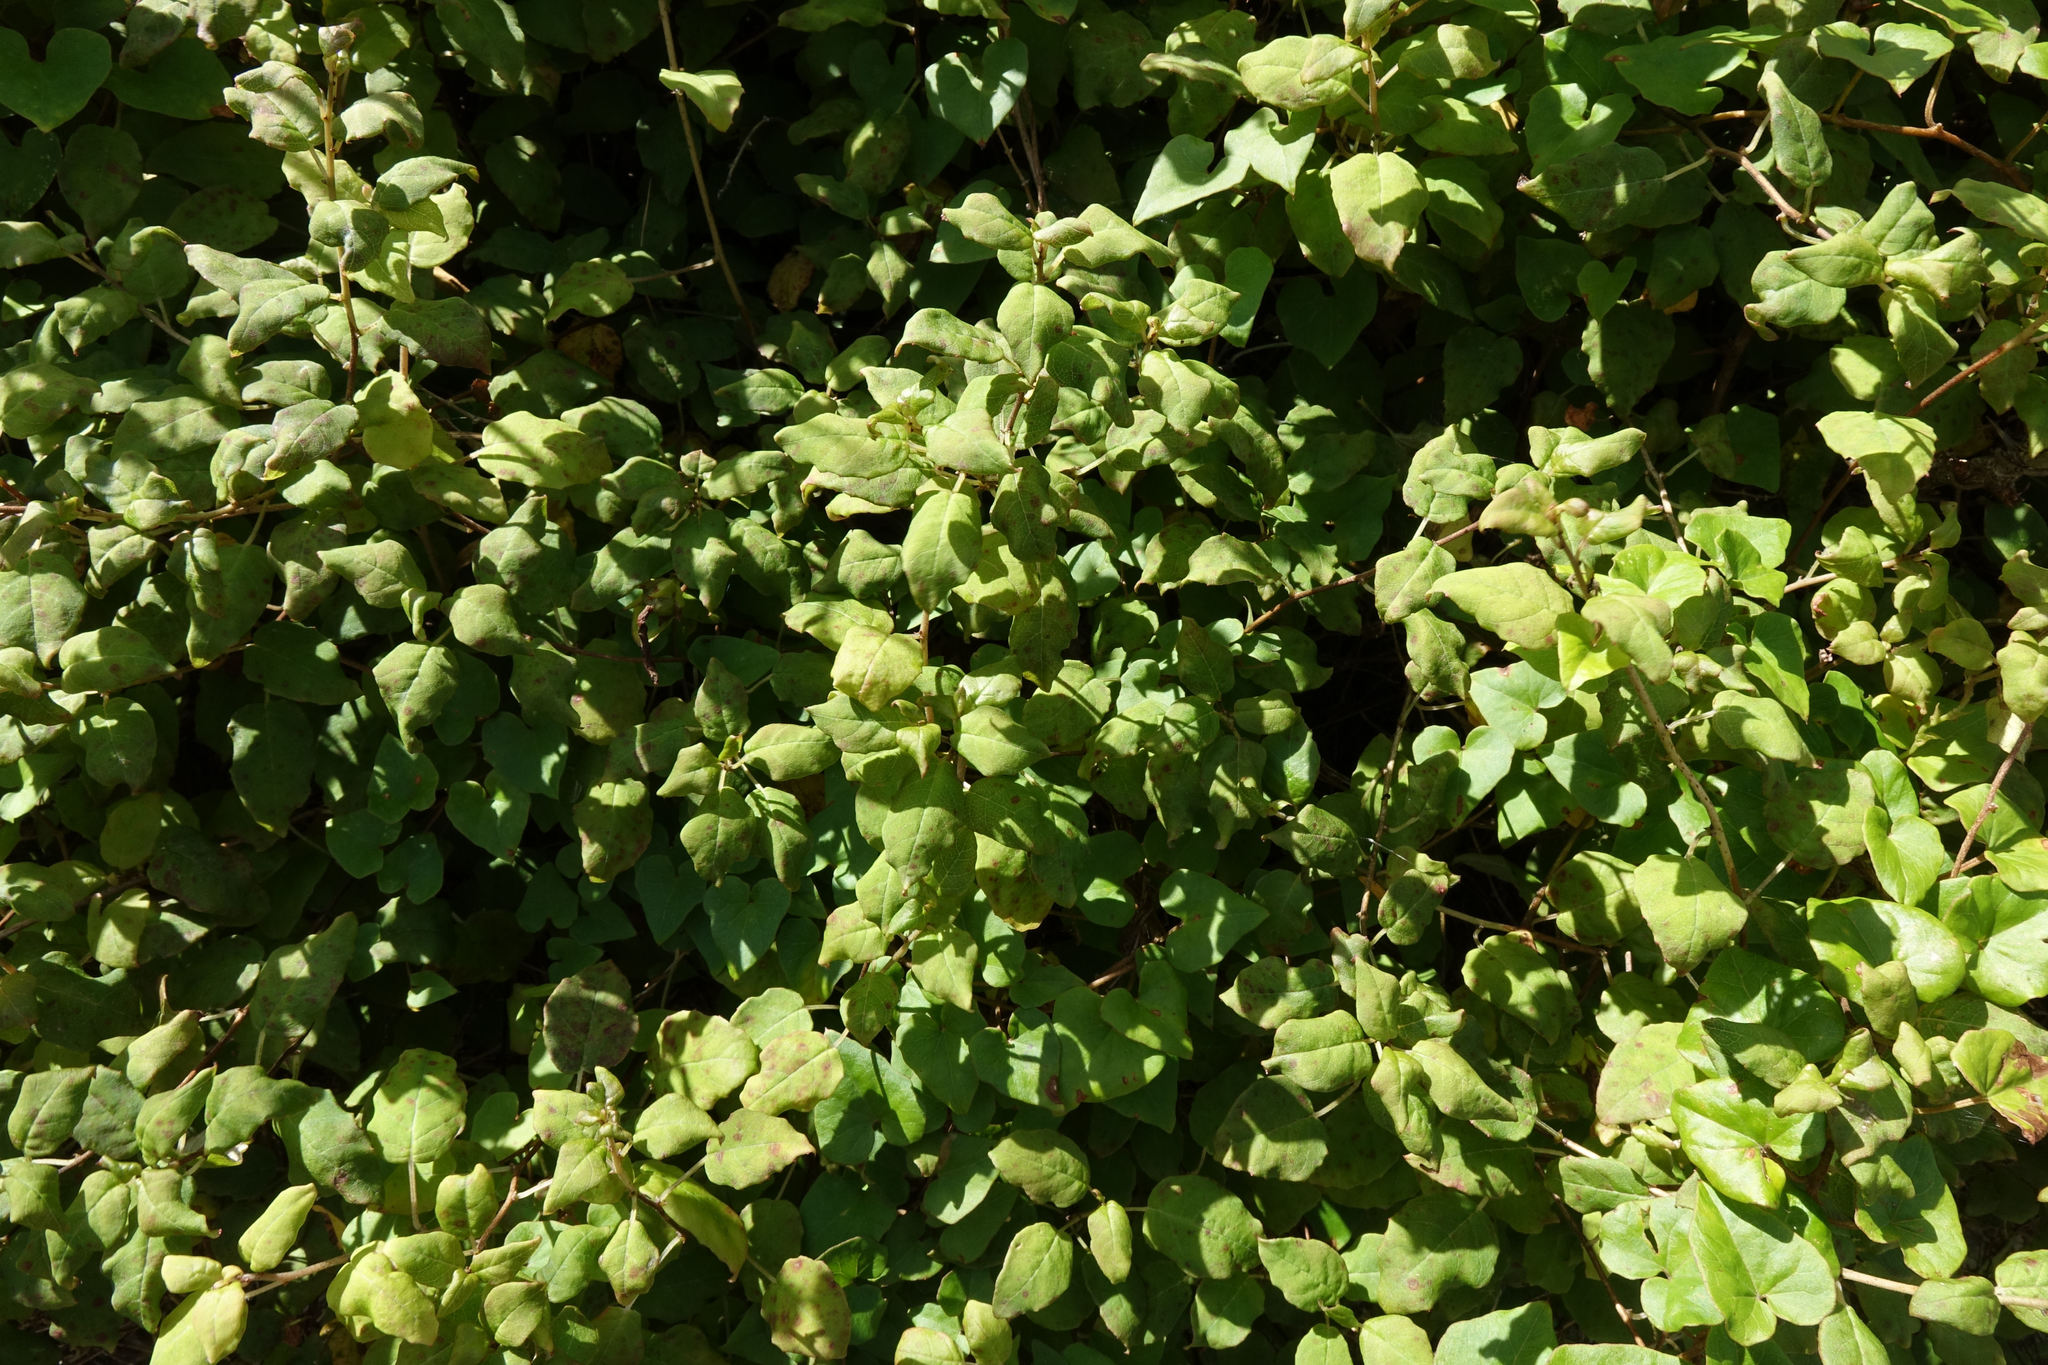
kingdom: Plantae
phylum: Tracheophyta
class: Magnoliopsida
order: Myrtales
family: Onagraceae
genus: Fuchsia
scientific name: Fuchsia perscandens
